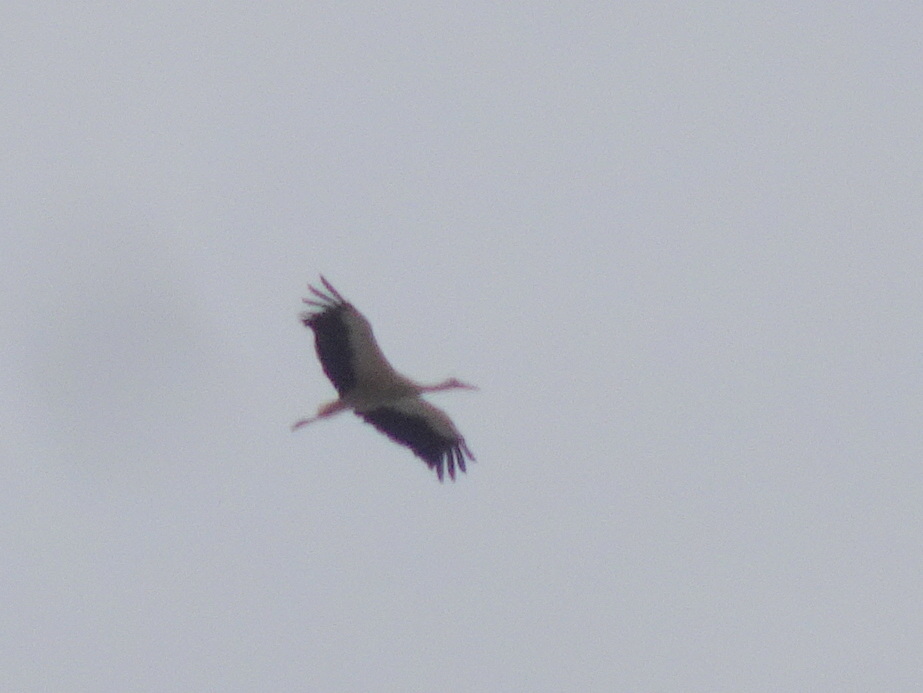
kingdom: Animalia
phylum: Chordata
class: Aves
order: Ciconiiformes
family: Ciconiidae
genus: Ciconia
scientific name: Ciconia ciconia
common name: White stork
